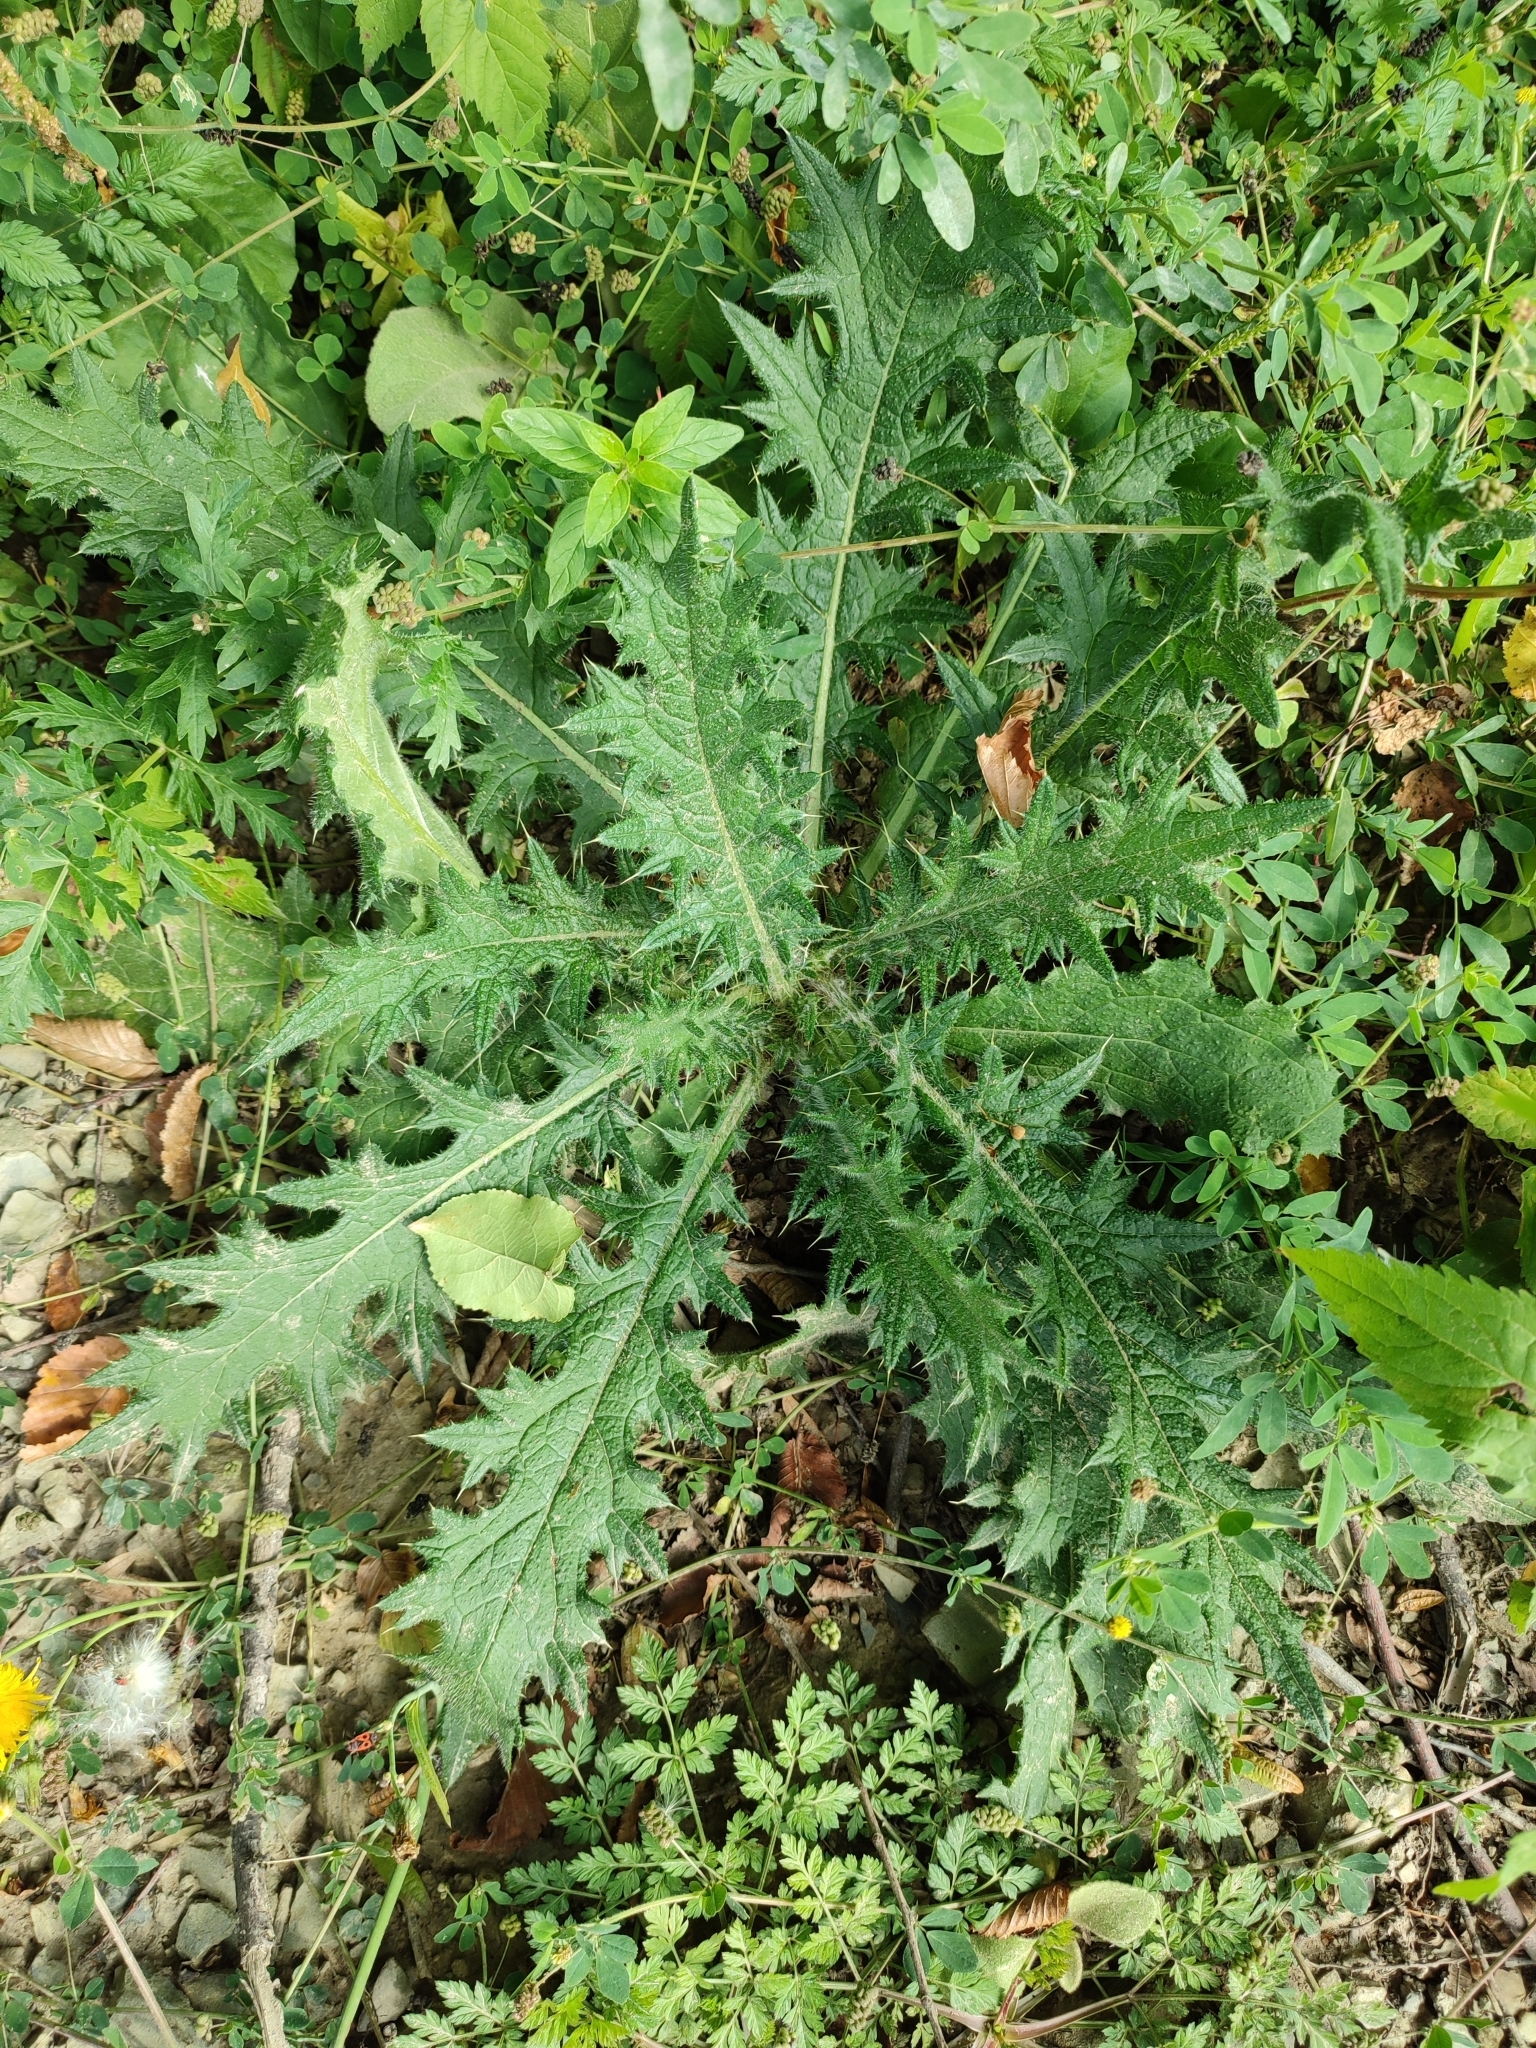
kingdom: Plantae
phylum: Tracheophyta
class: Magnoliopsida
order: Asterales
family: Asteraceae
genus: Cirsium
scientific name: Cirsium vulgare
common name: Bull thistle
